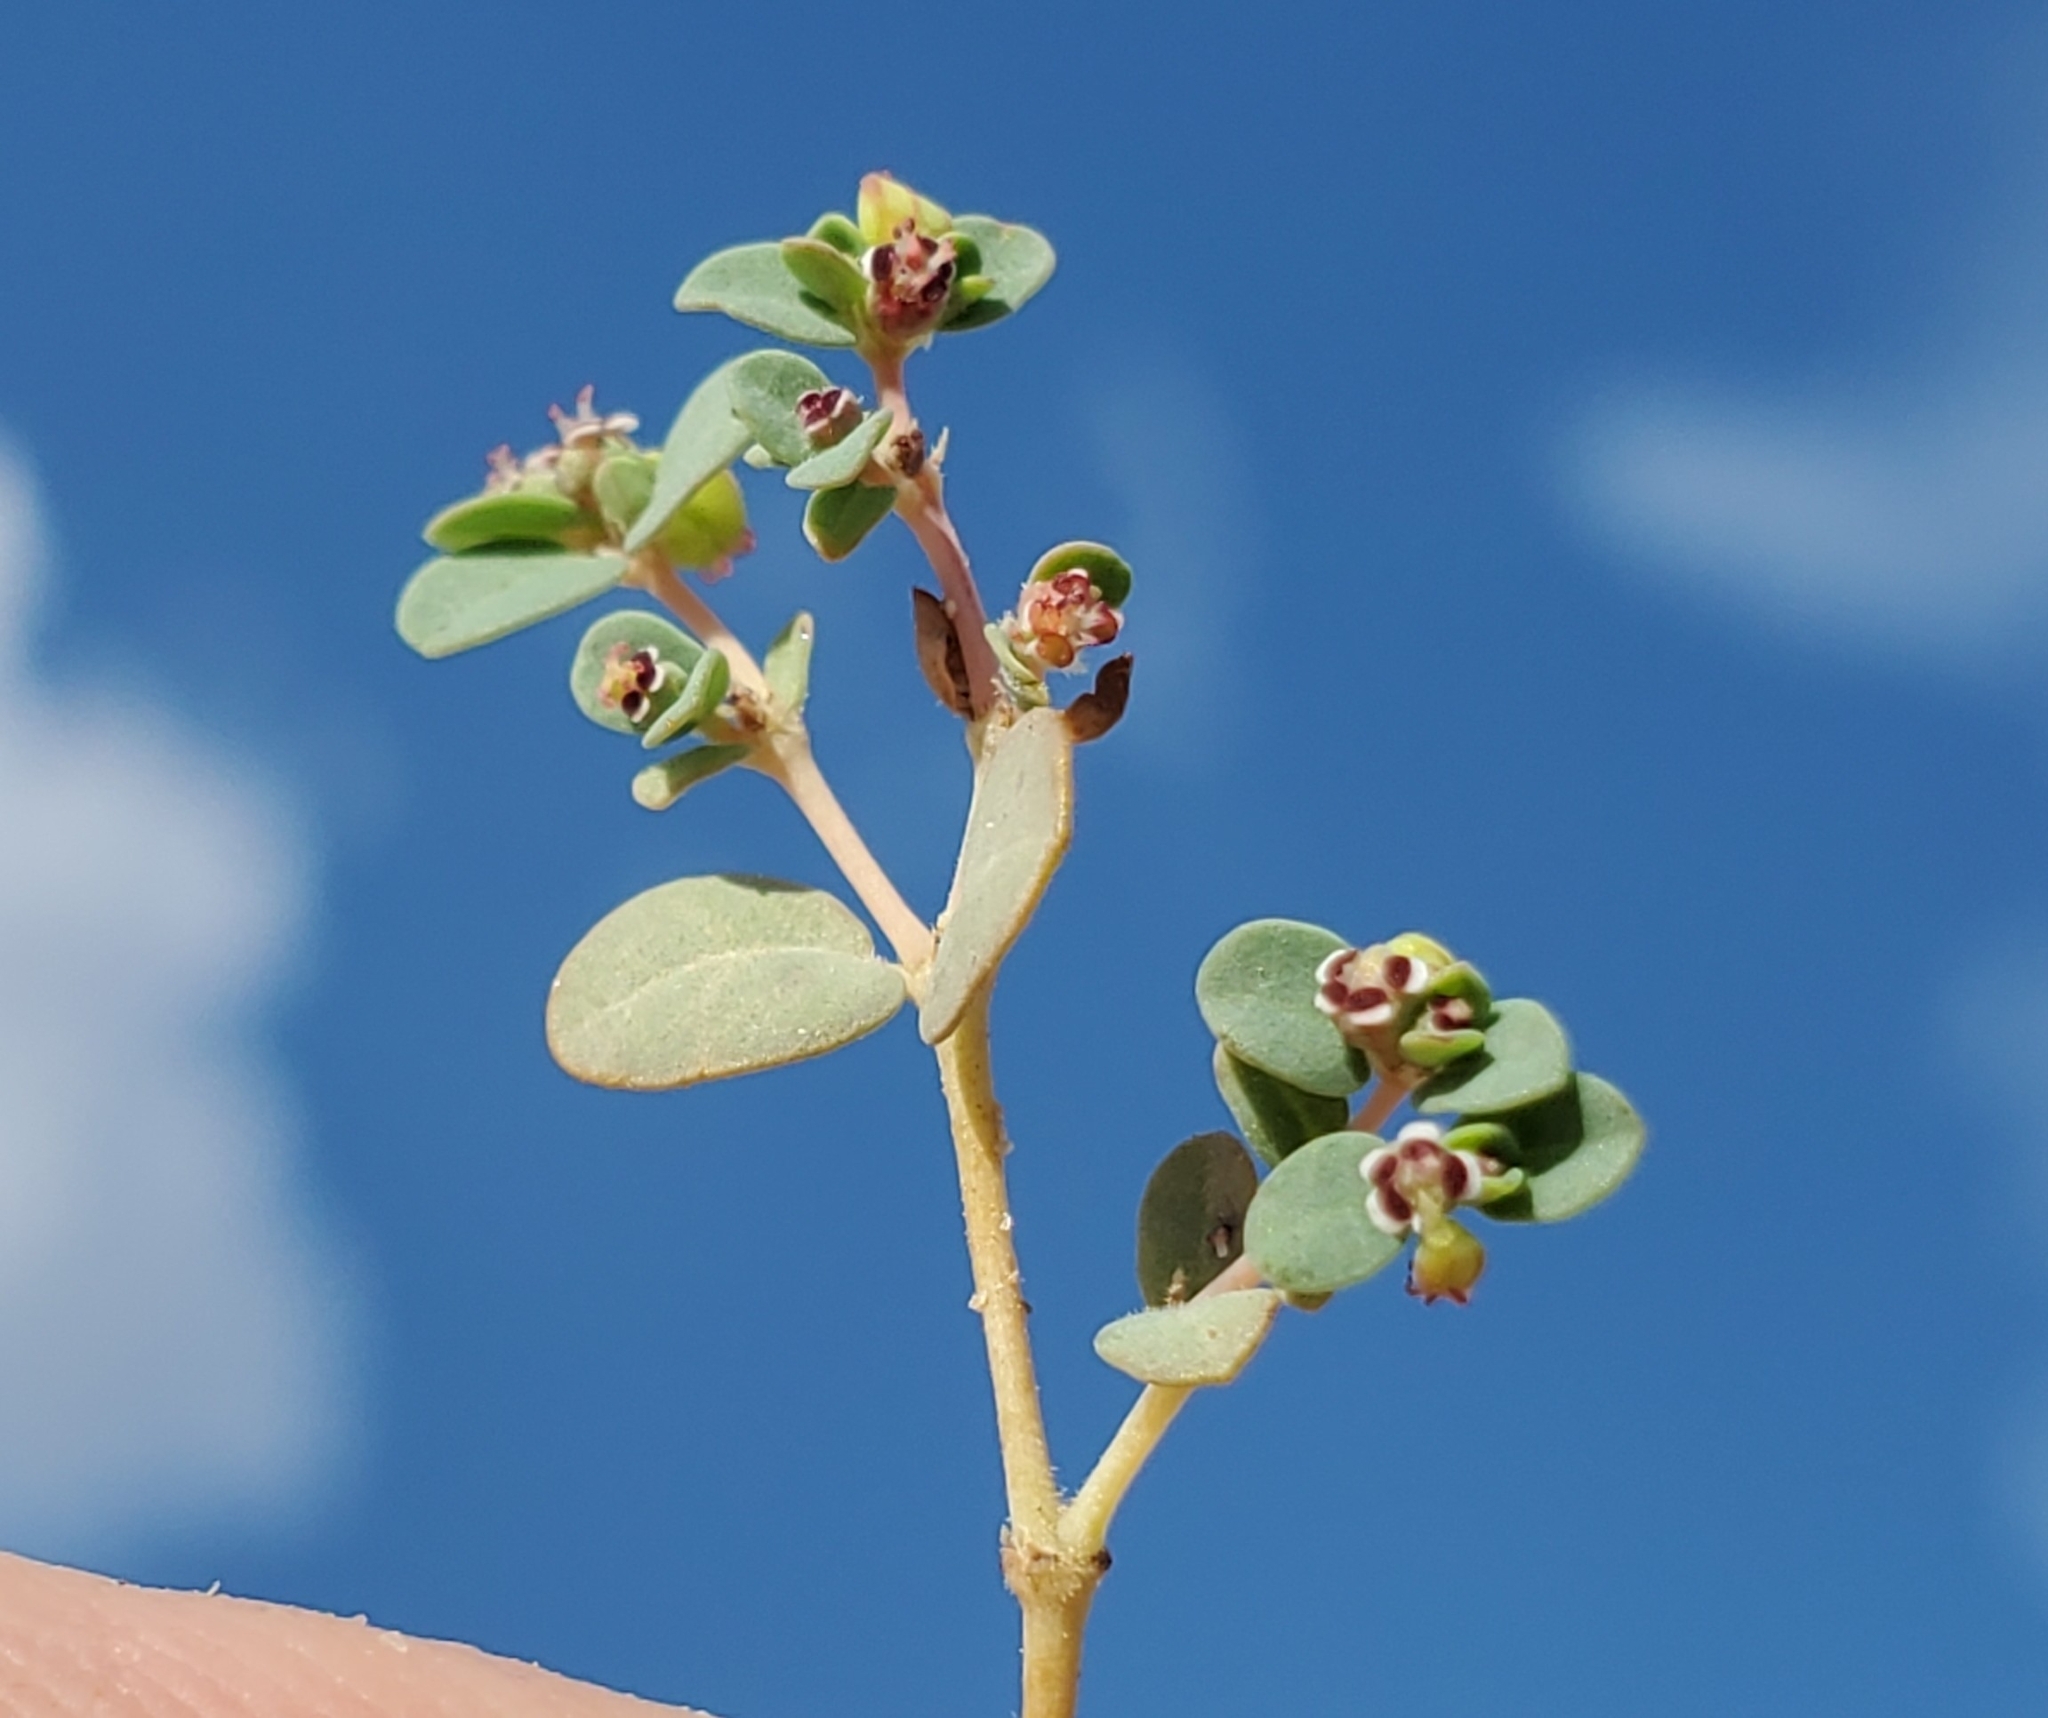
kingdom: Plantae
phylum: Tracheophyta
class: Magnoliopsida
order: Malpighiales
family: Euphorbiaceae
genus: Euphorbia
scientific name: Euphorbia polycarpa
